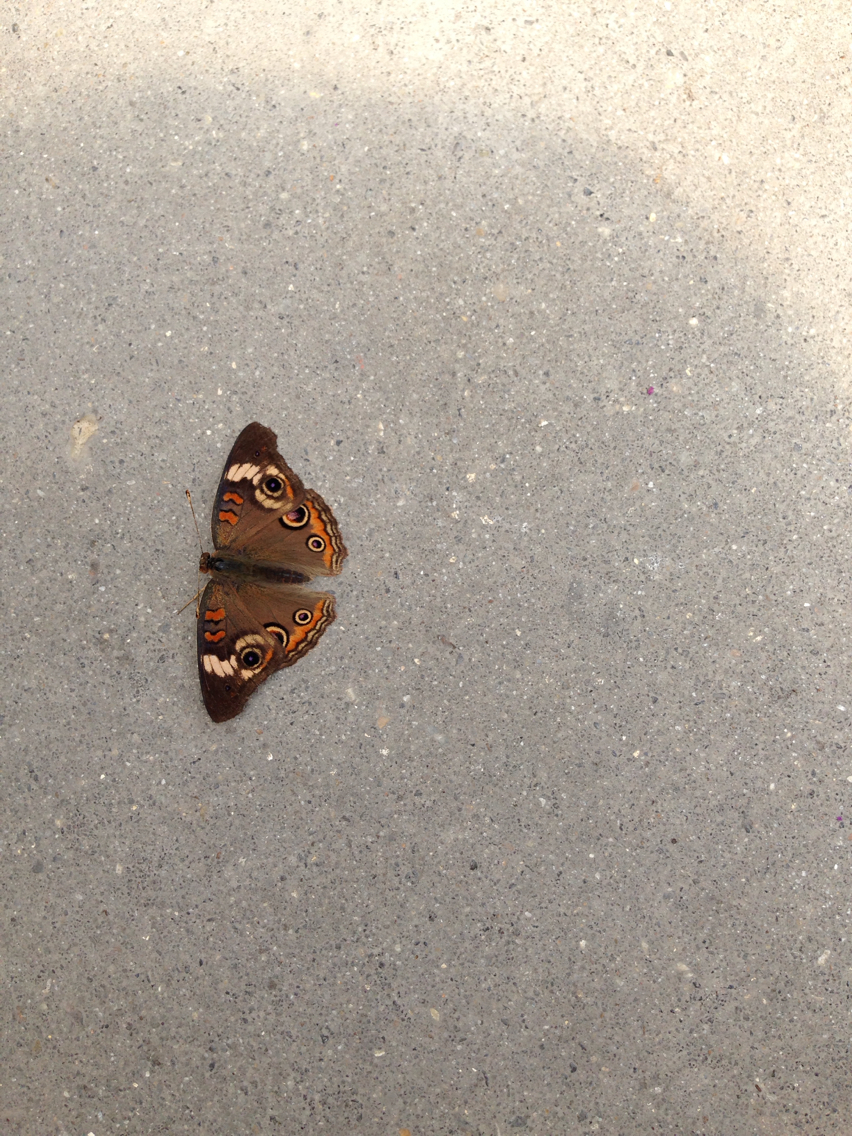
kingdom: Animalia
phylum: Arthropoda
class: Insecta
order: Lepidoptera
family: Nymphalidae
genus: Junonia
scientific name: Junonia coenia
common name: Common buckeye
